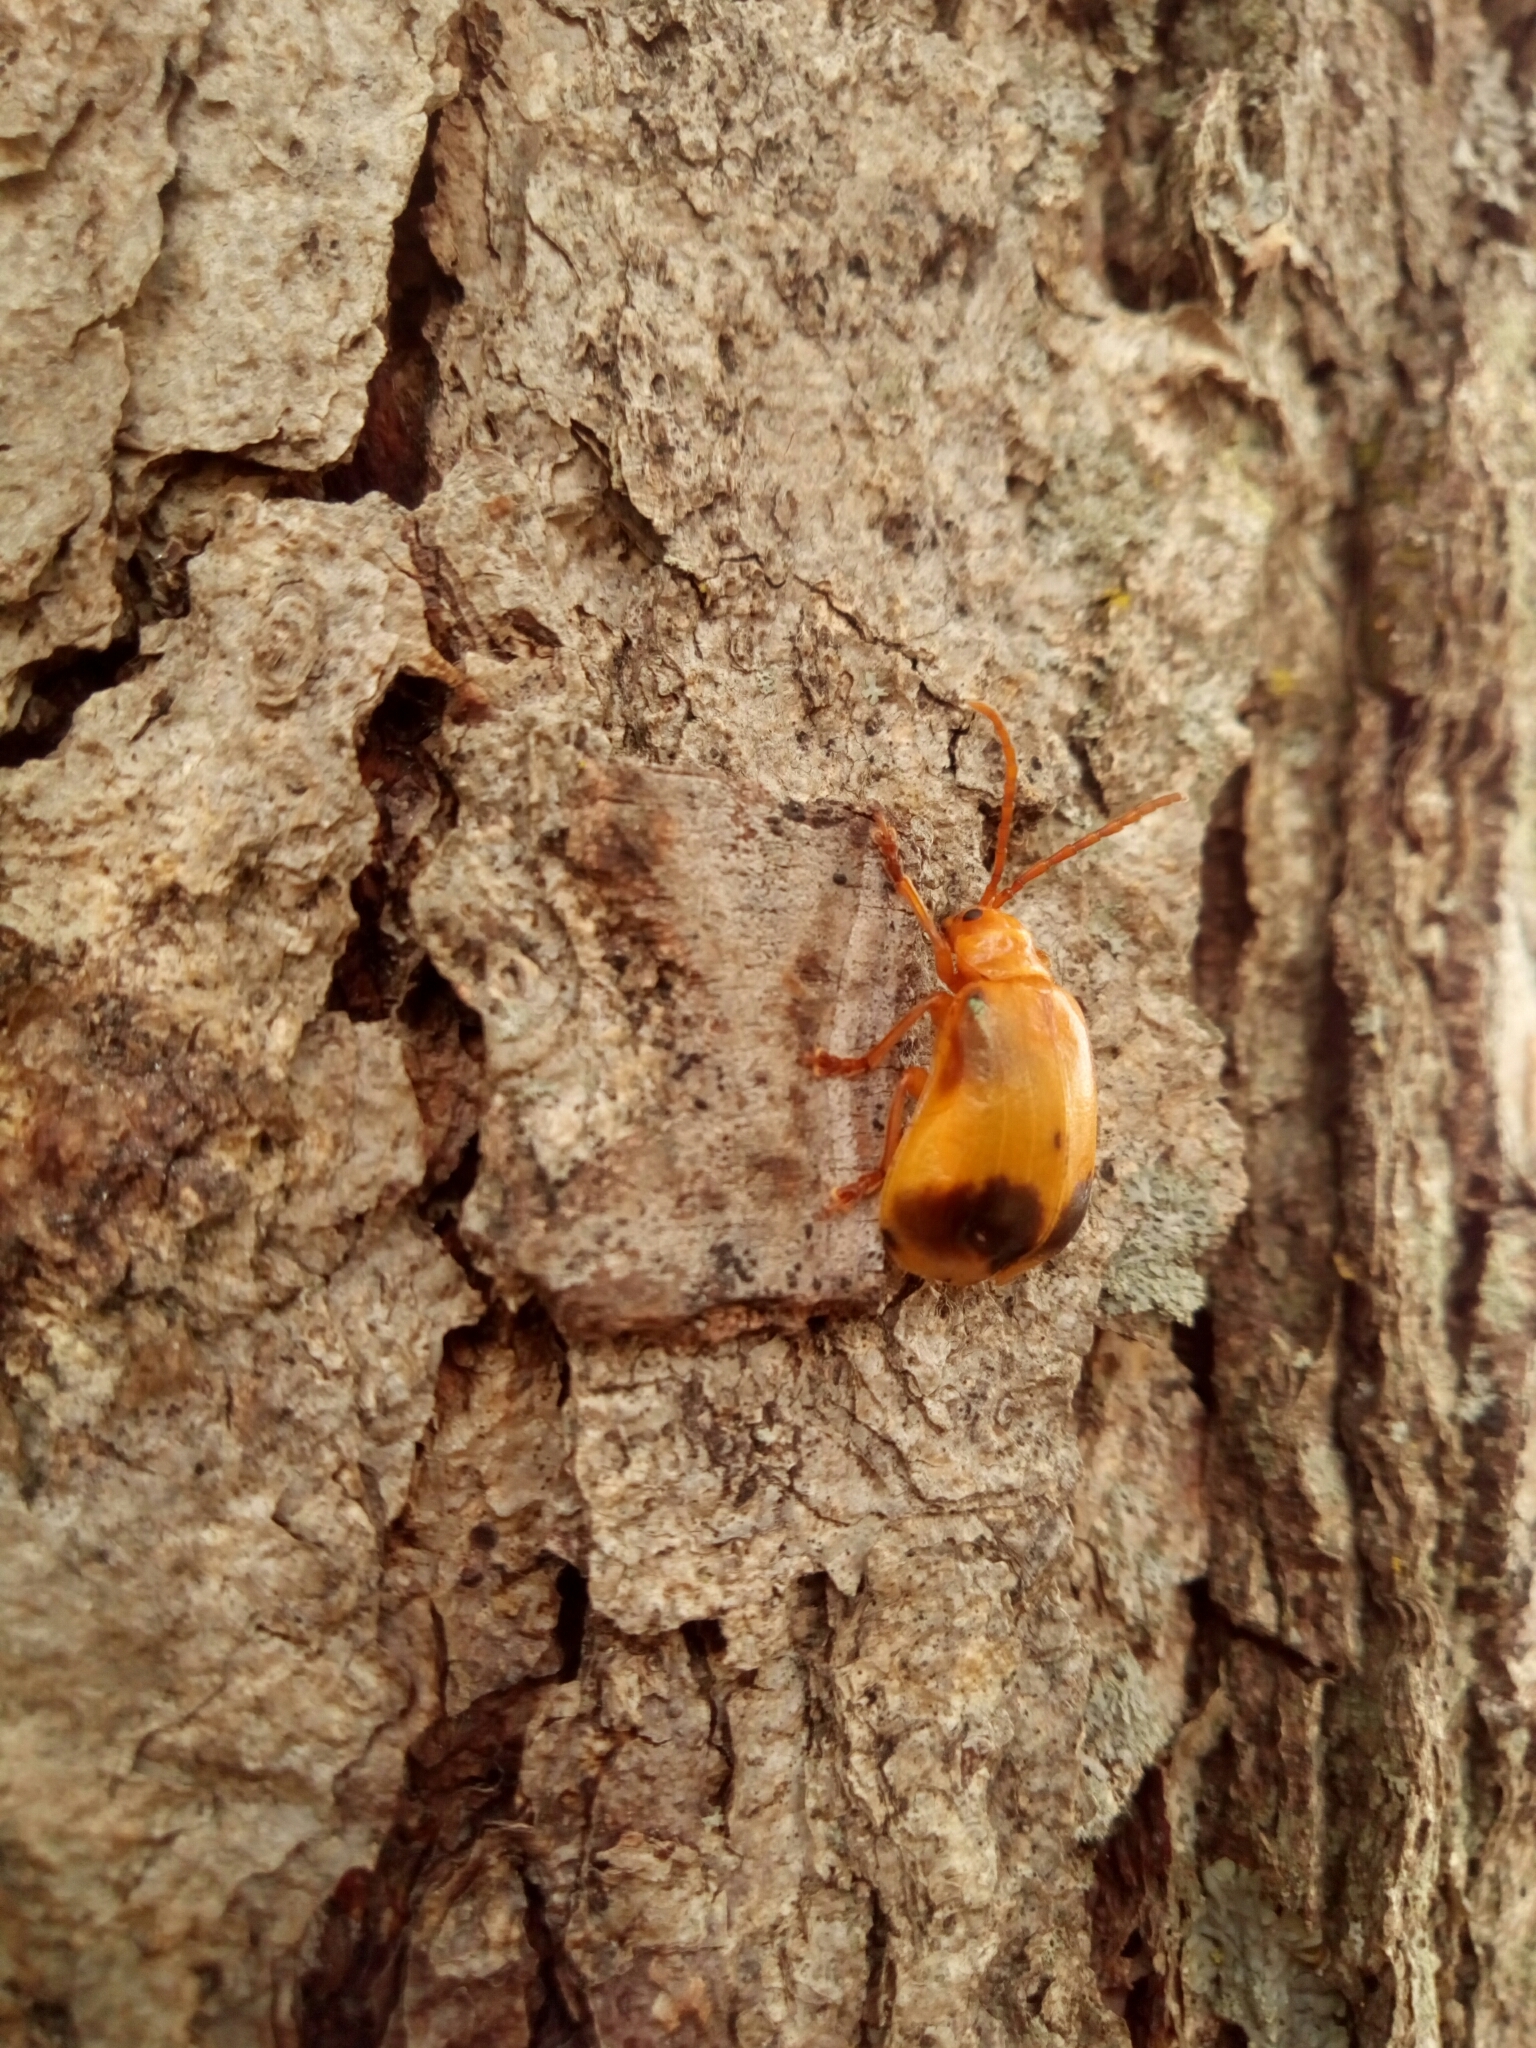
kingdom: Animalia
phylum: Arthropoda
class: Insecta
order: Coleoptera
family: Chrysomelidae
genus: Monocesta
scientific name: Monocesta coryli
